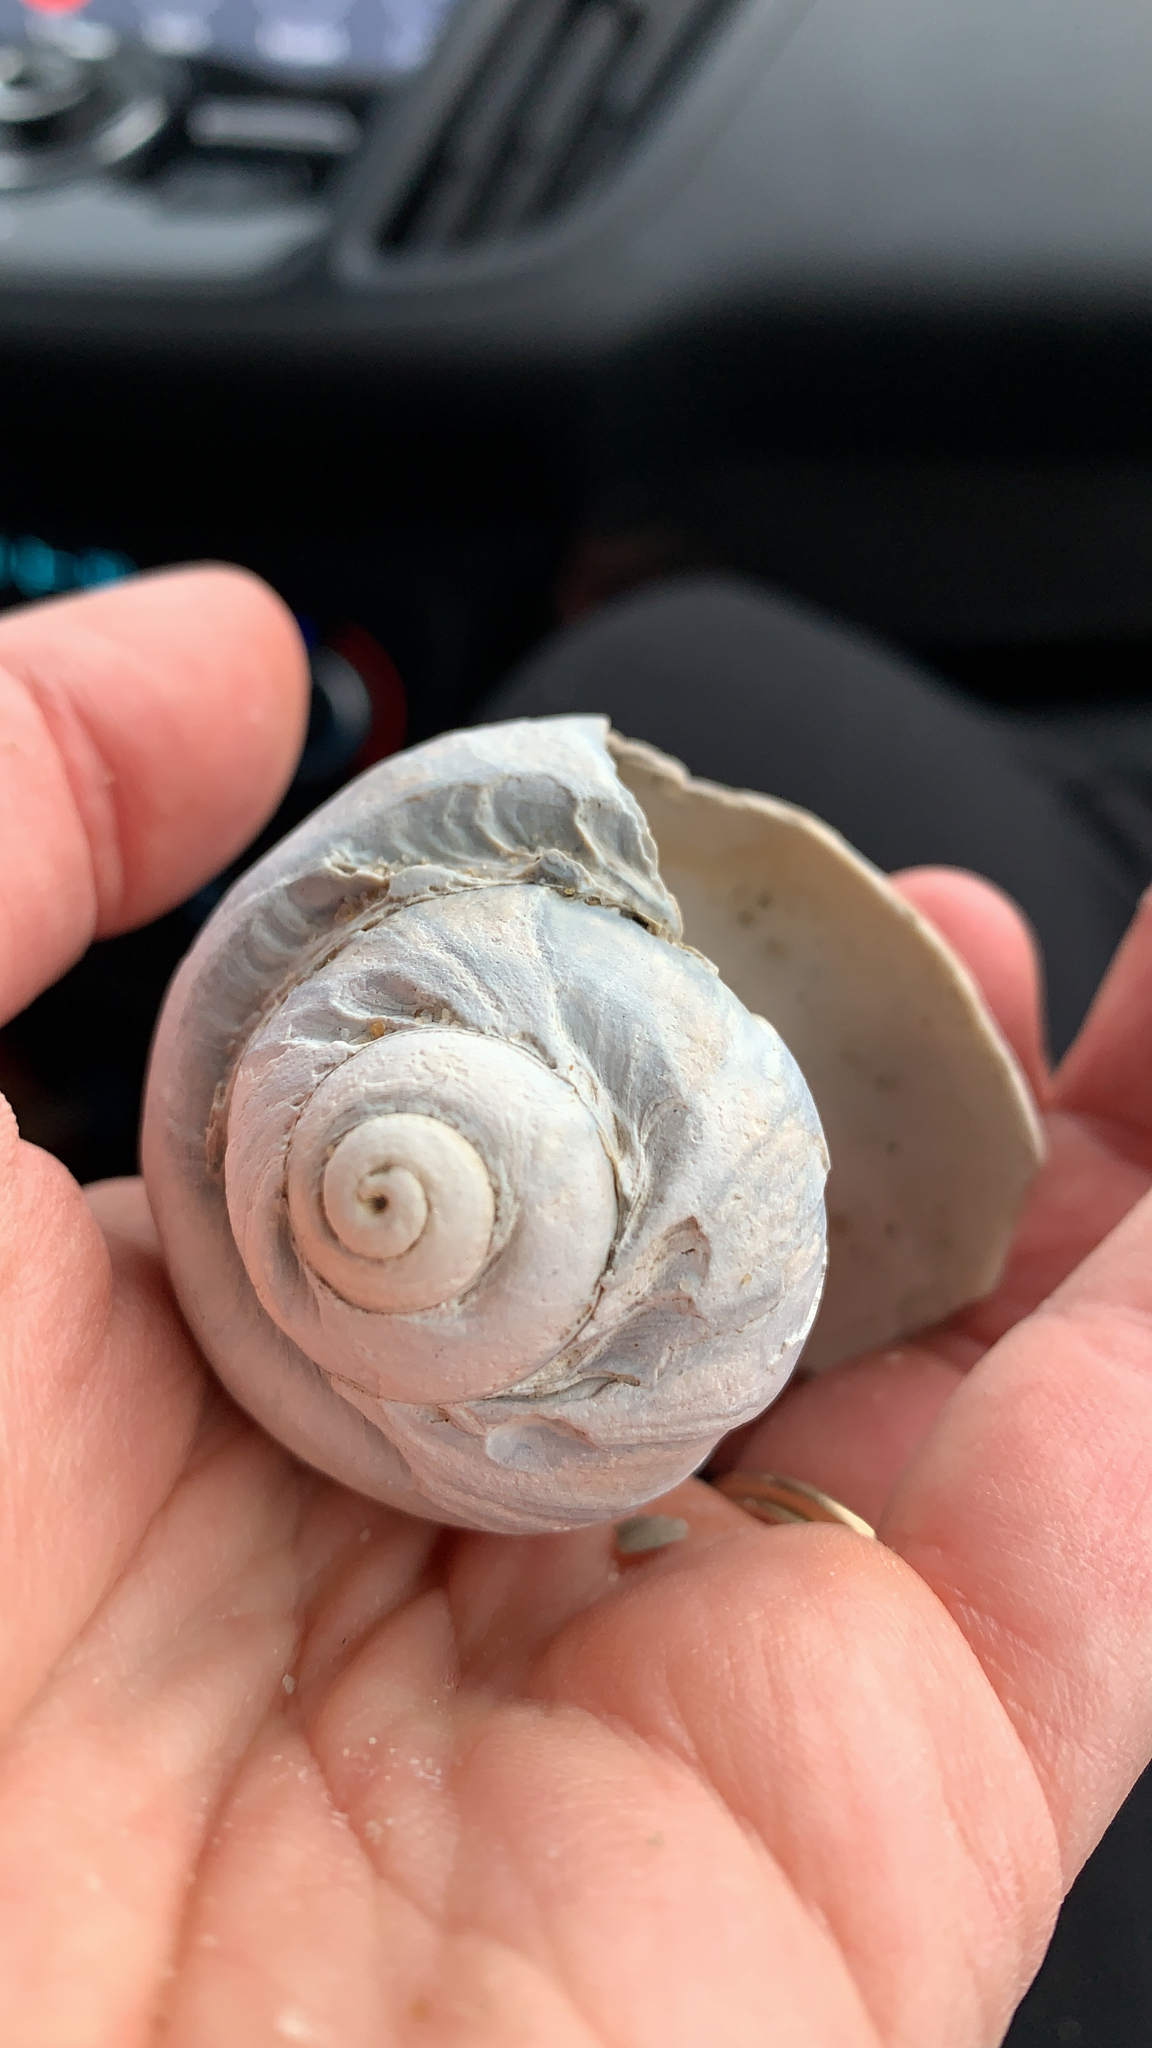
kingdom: Animalia
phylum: Mollusca
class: Gastropoda
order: Littorinimorpha
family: Naticidae
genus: Euspira
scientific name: Euspira heros
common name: Common northern moonsnail
